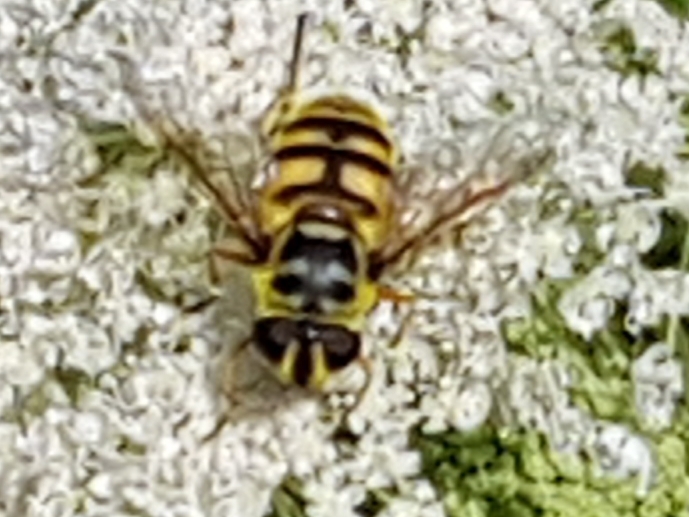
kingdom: Animalia
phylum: Arthropoda
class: Insecta
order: Diptera
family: Syrphidae
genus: Myathropa
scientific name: Myathropa florea
